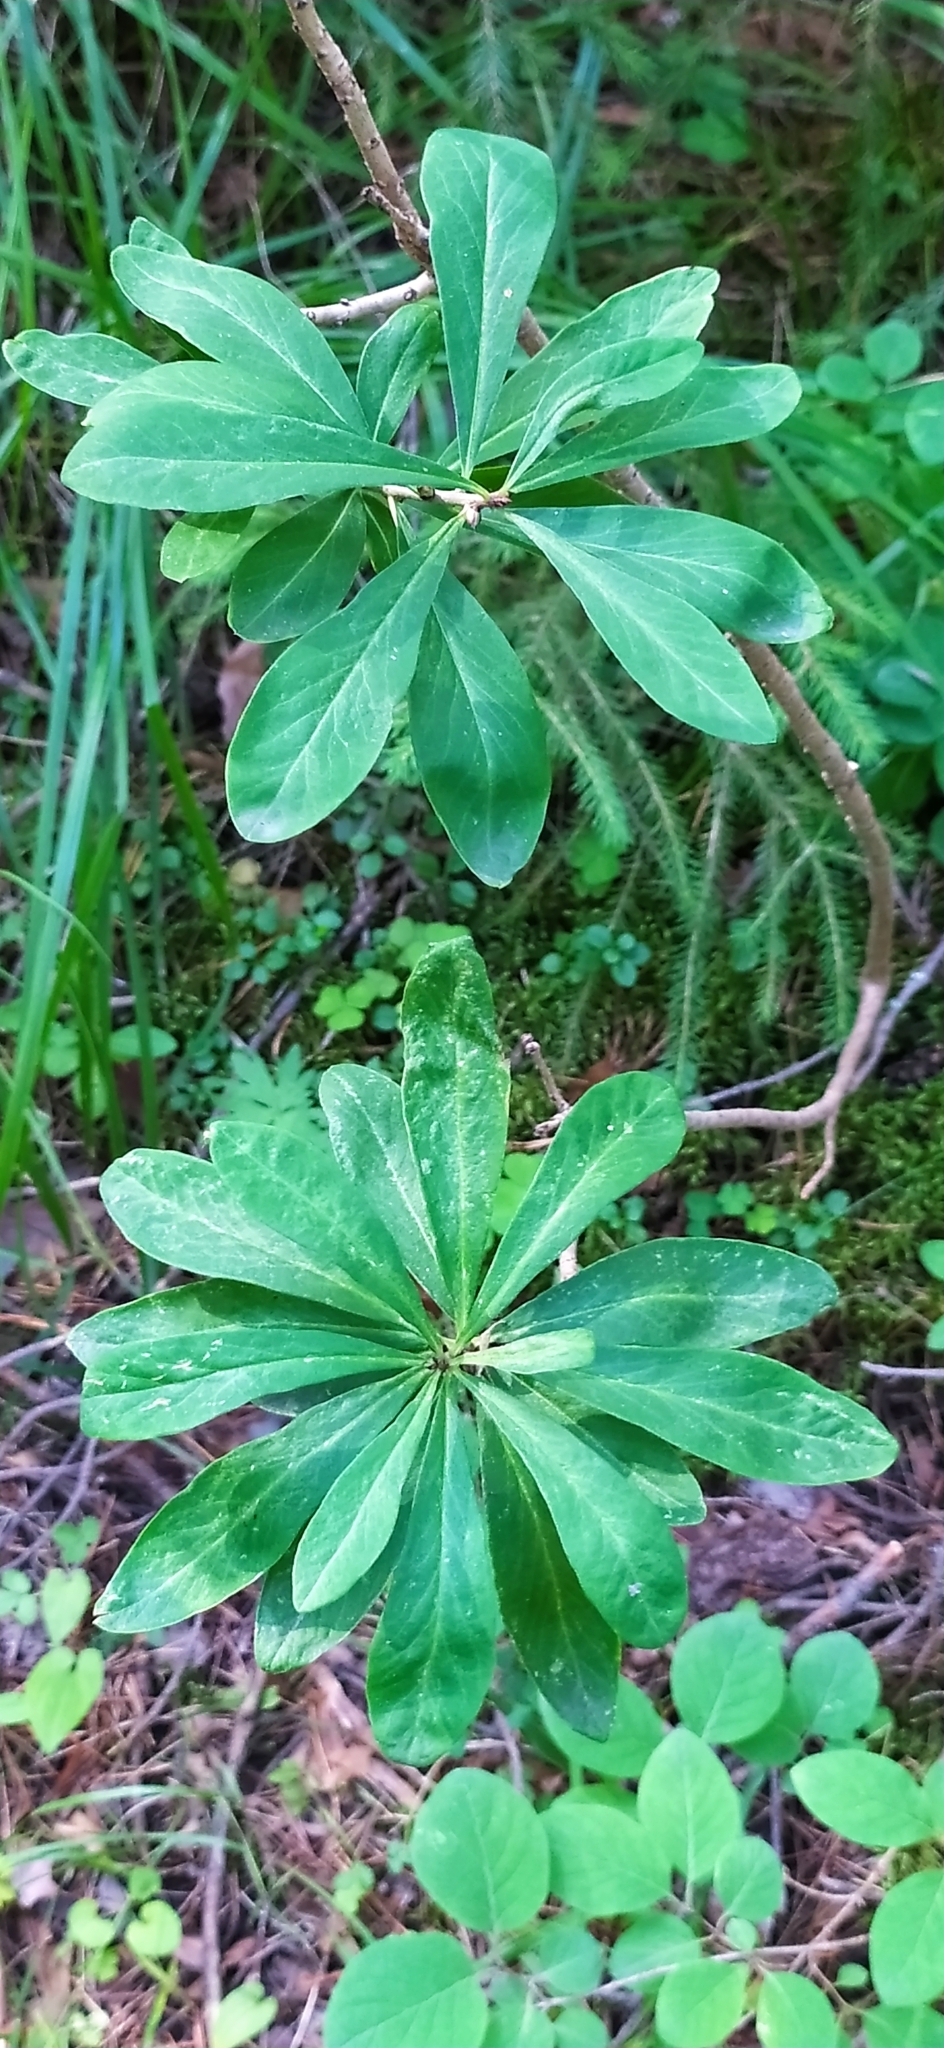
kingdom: Plantae
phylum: Tracheophyta
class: Magnoliopsida
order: Malvales
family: Thymelaeaceae
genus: Daphne
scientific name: Daphne mezereum
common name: Mezereon
